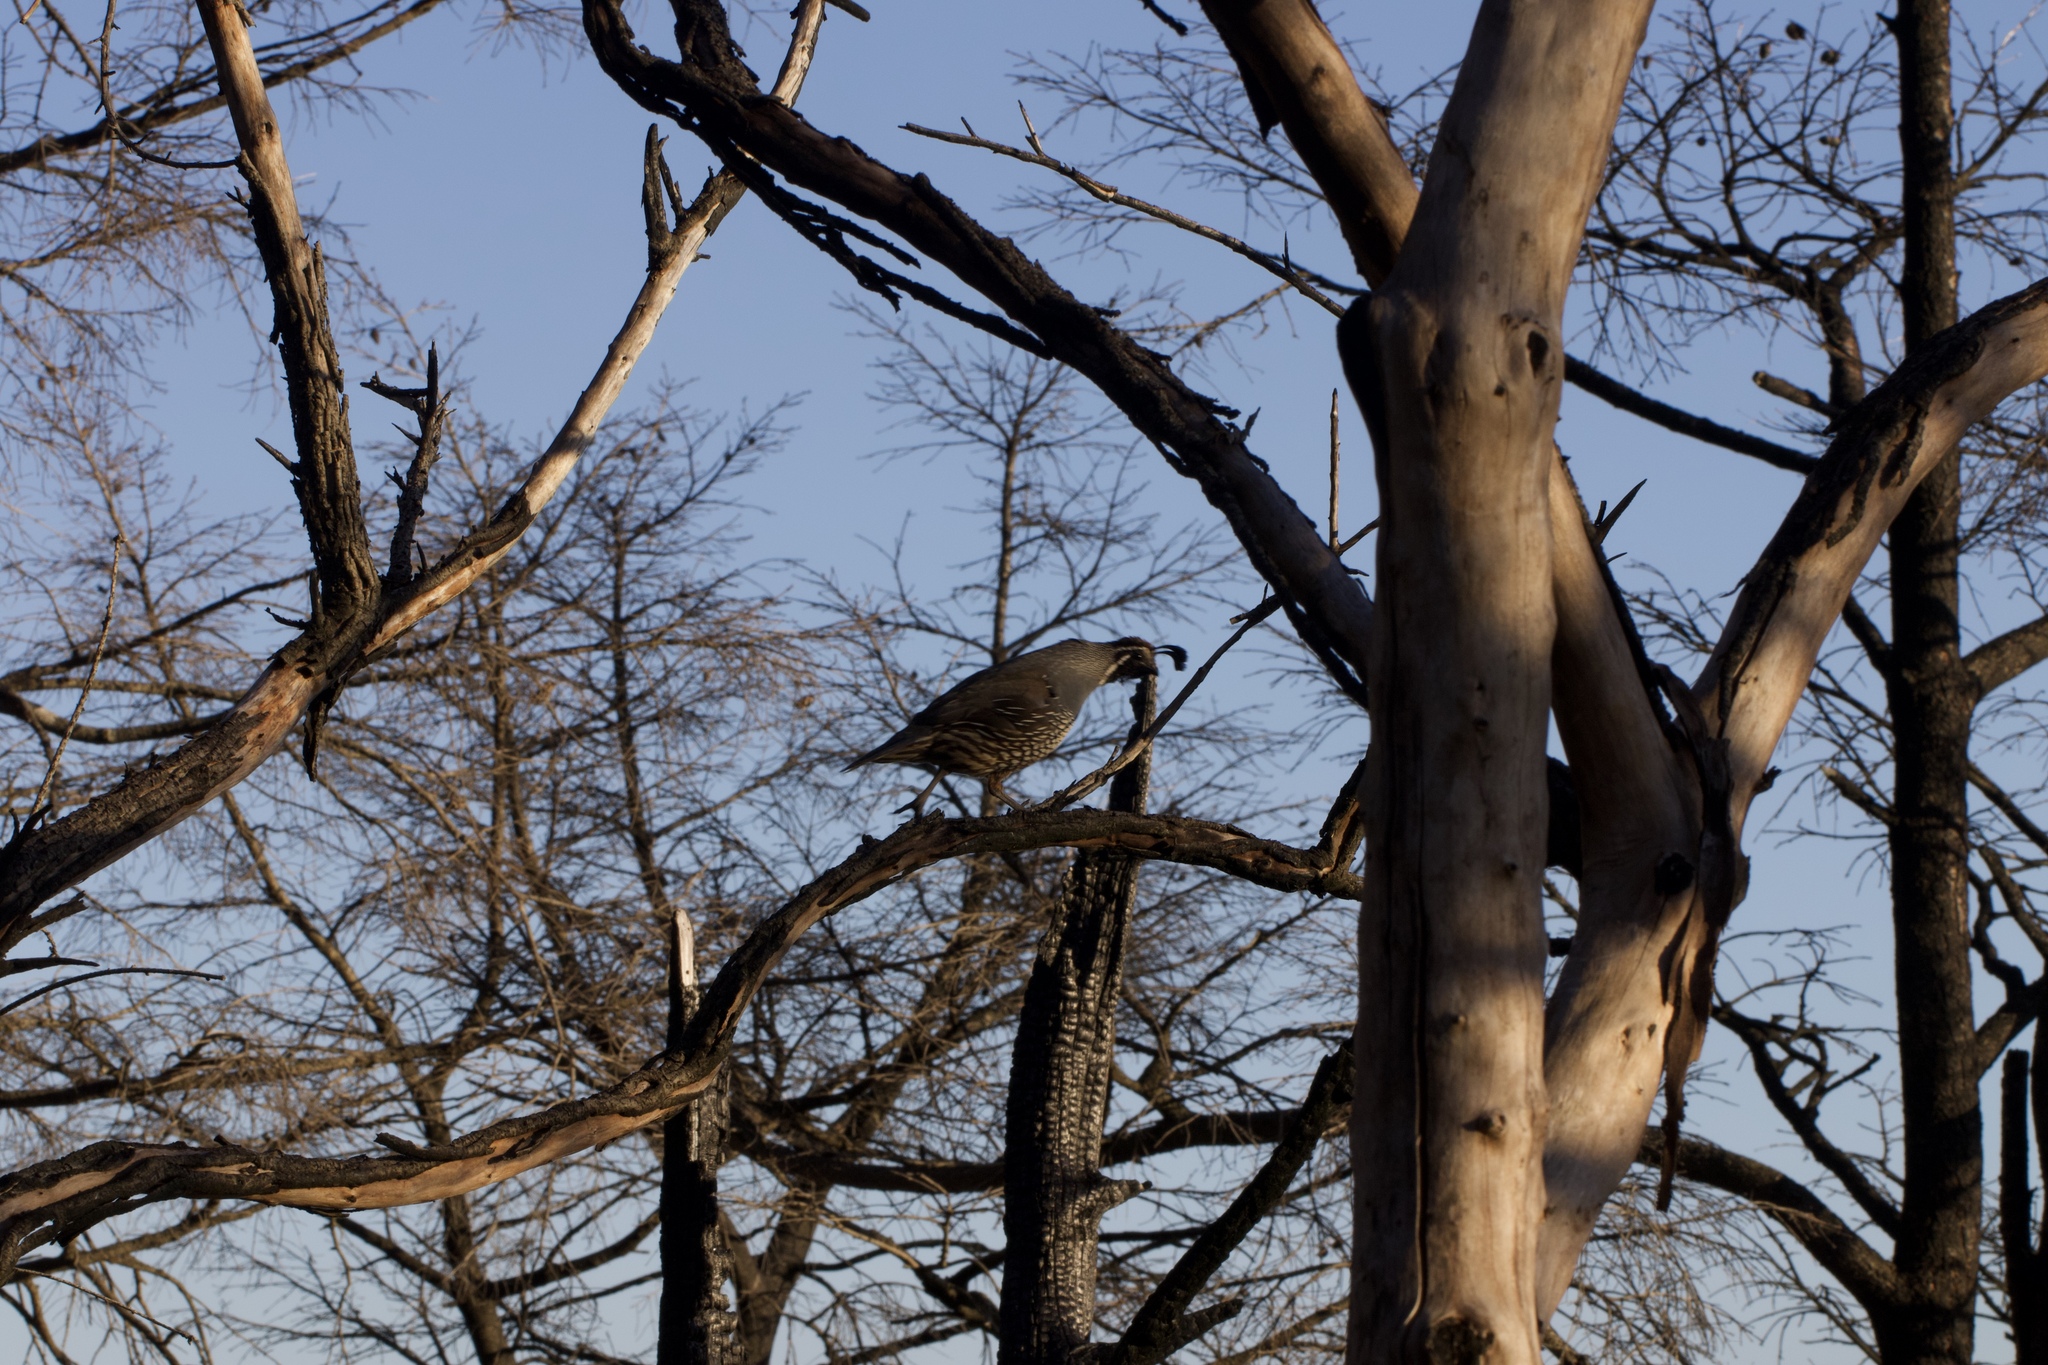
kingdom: Animalia
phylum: Chordata
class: Aves
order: Galliformes
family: Odontophoridae
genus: Callipepla
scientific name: Callipepla californica
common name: California quail
